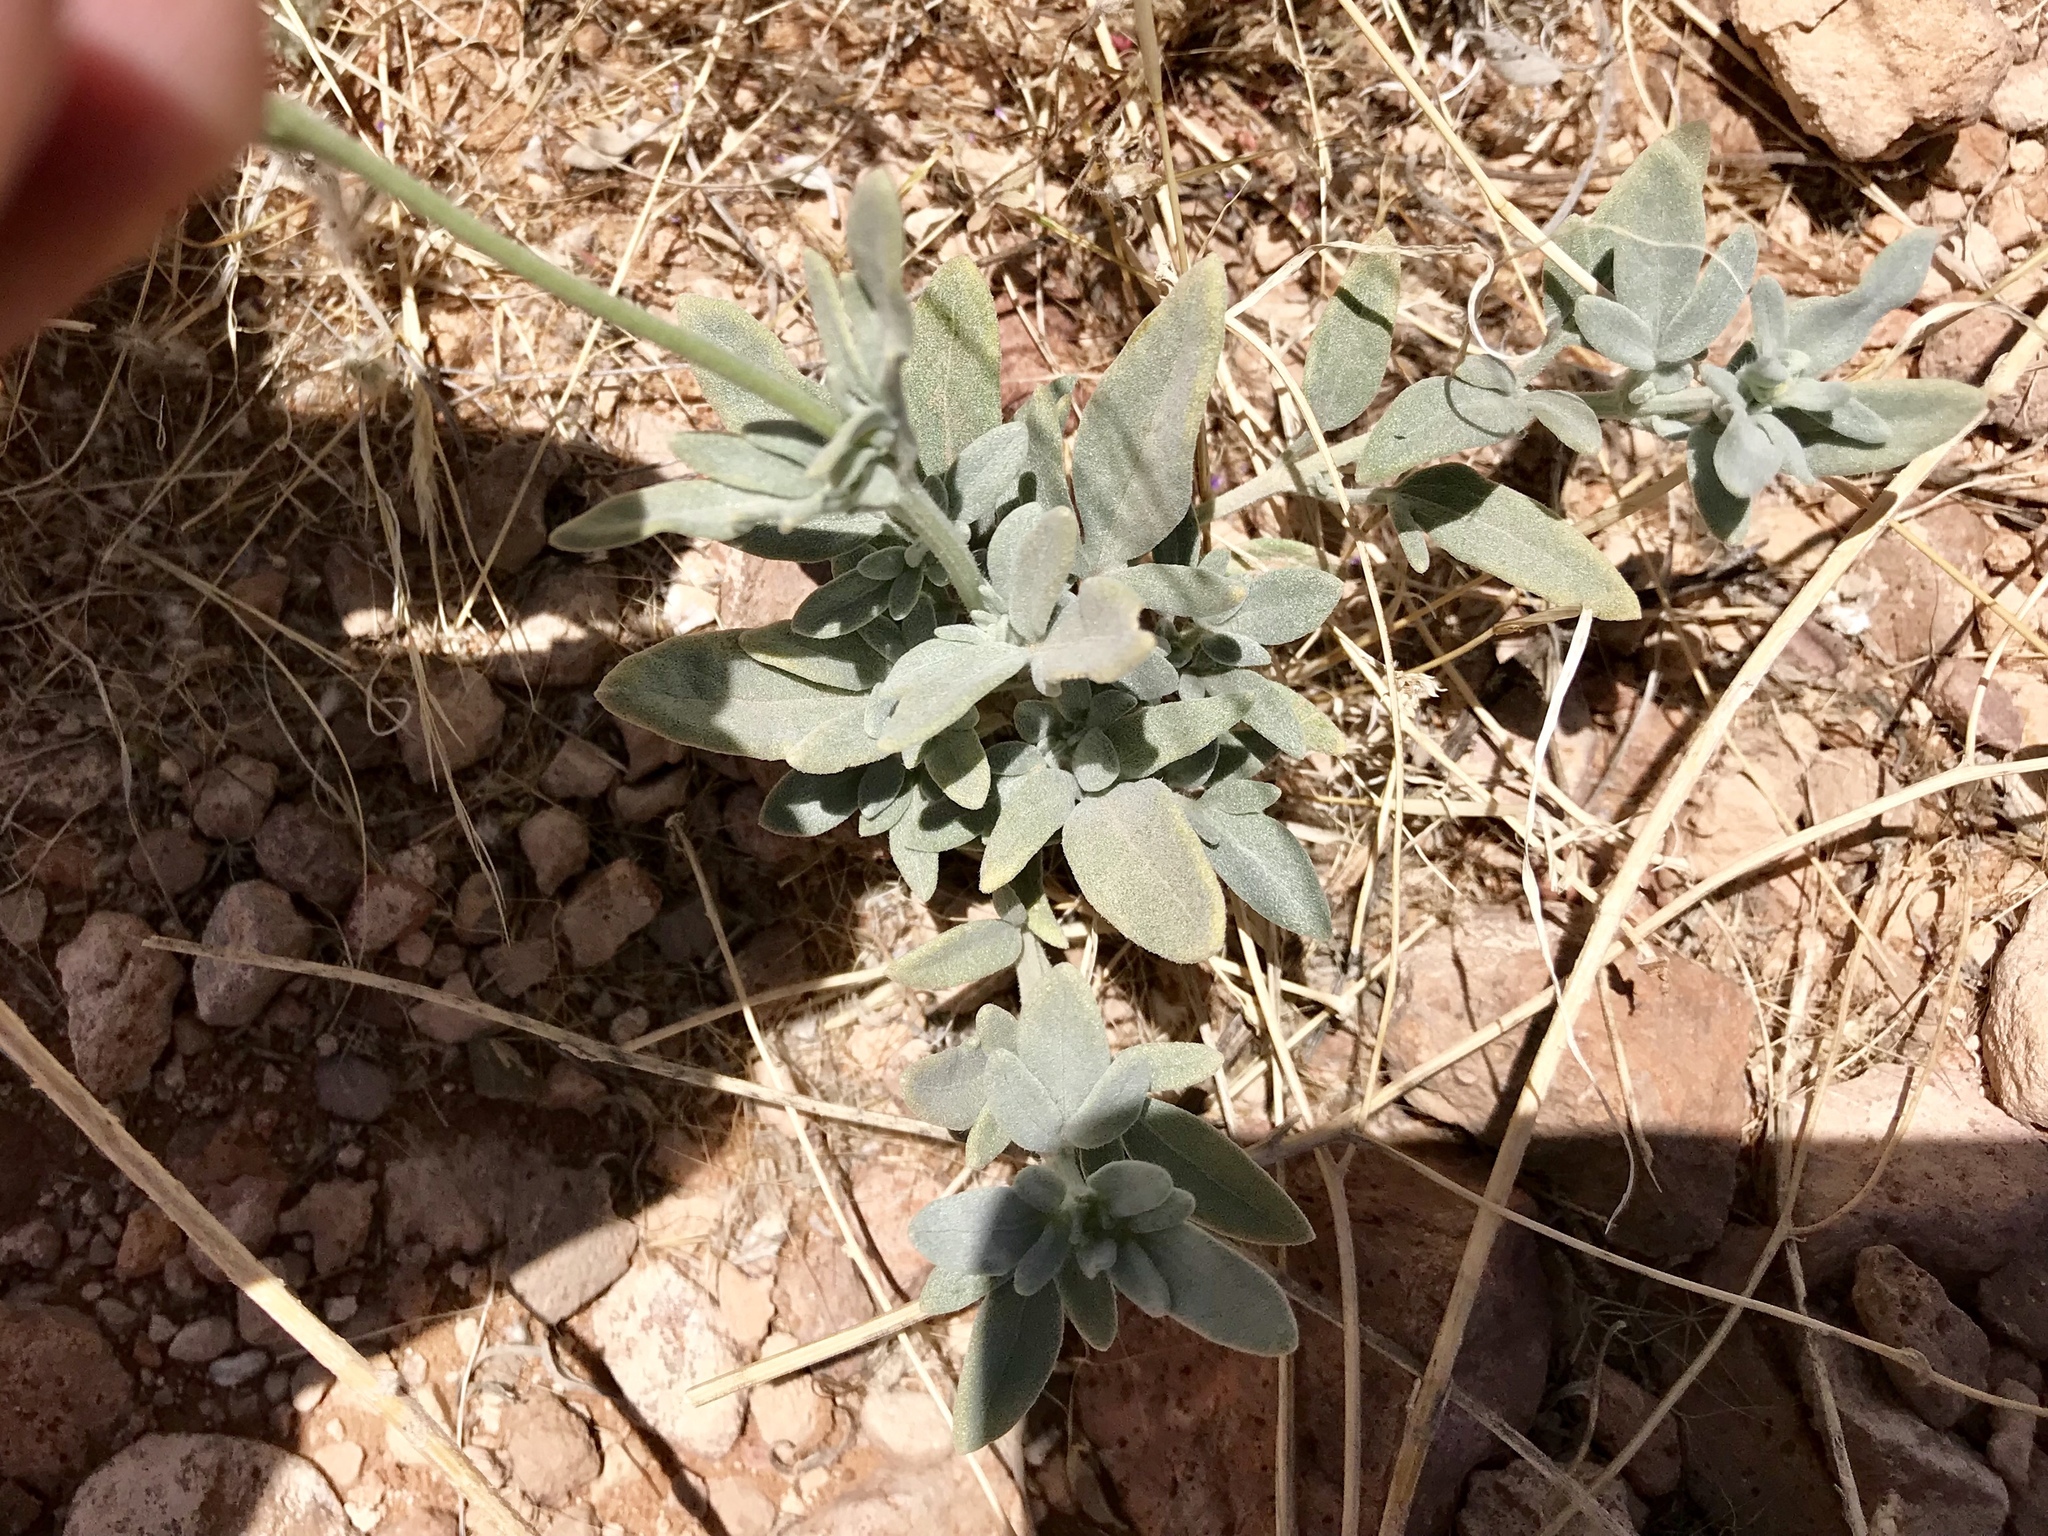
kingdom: Plantae
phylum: Tracheophyta
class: Magnoliopsida
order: Asterales
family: Asteraceae
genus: Picradeniopsis
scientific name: Picradeniopsis absinthifolia
